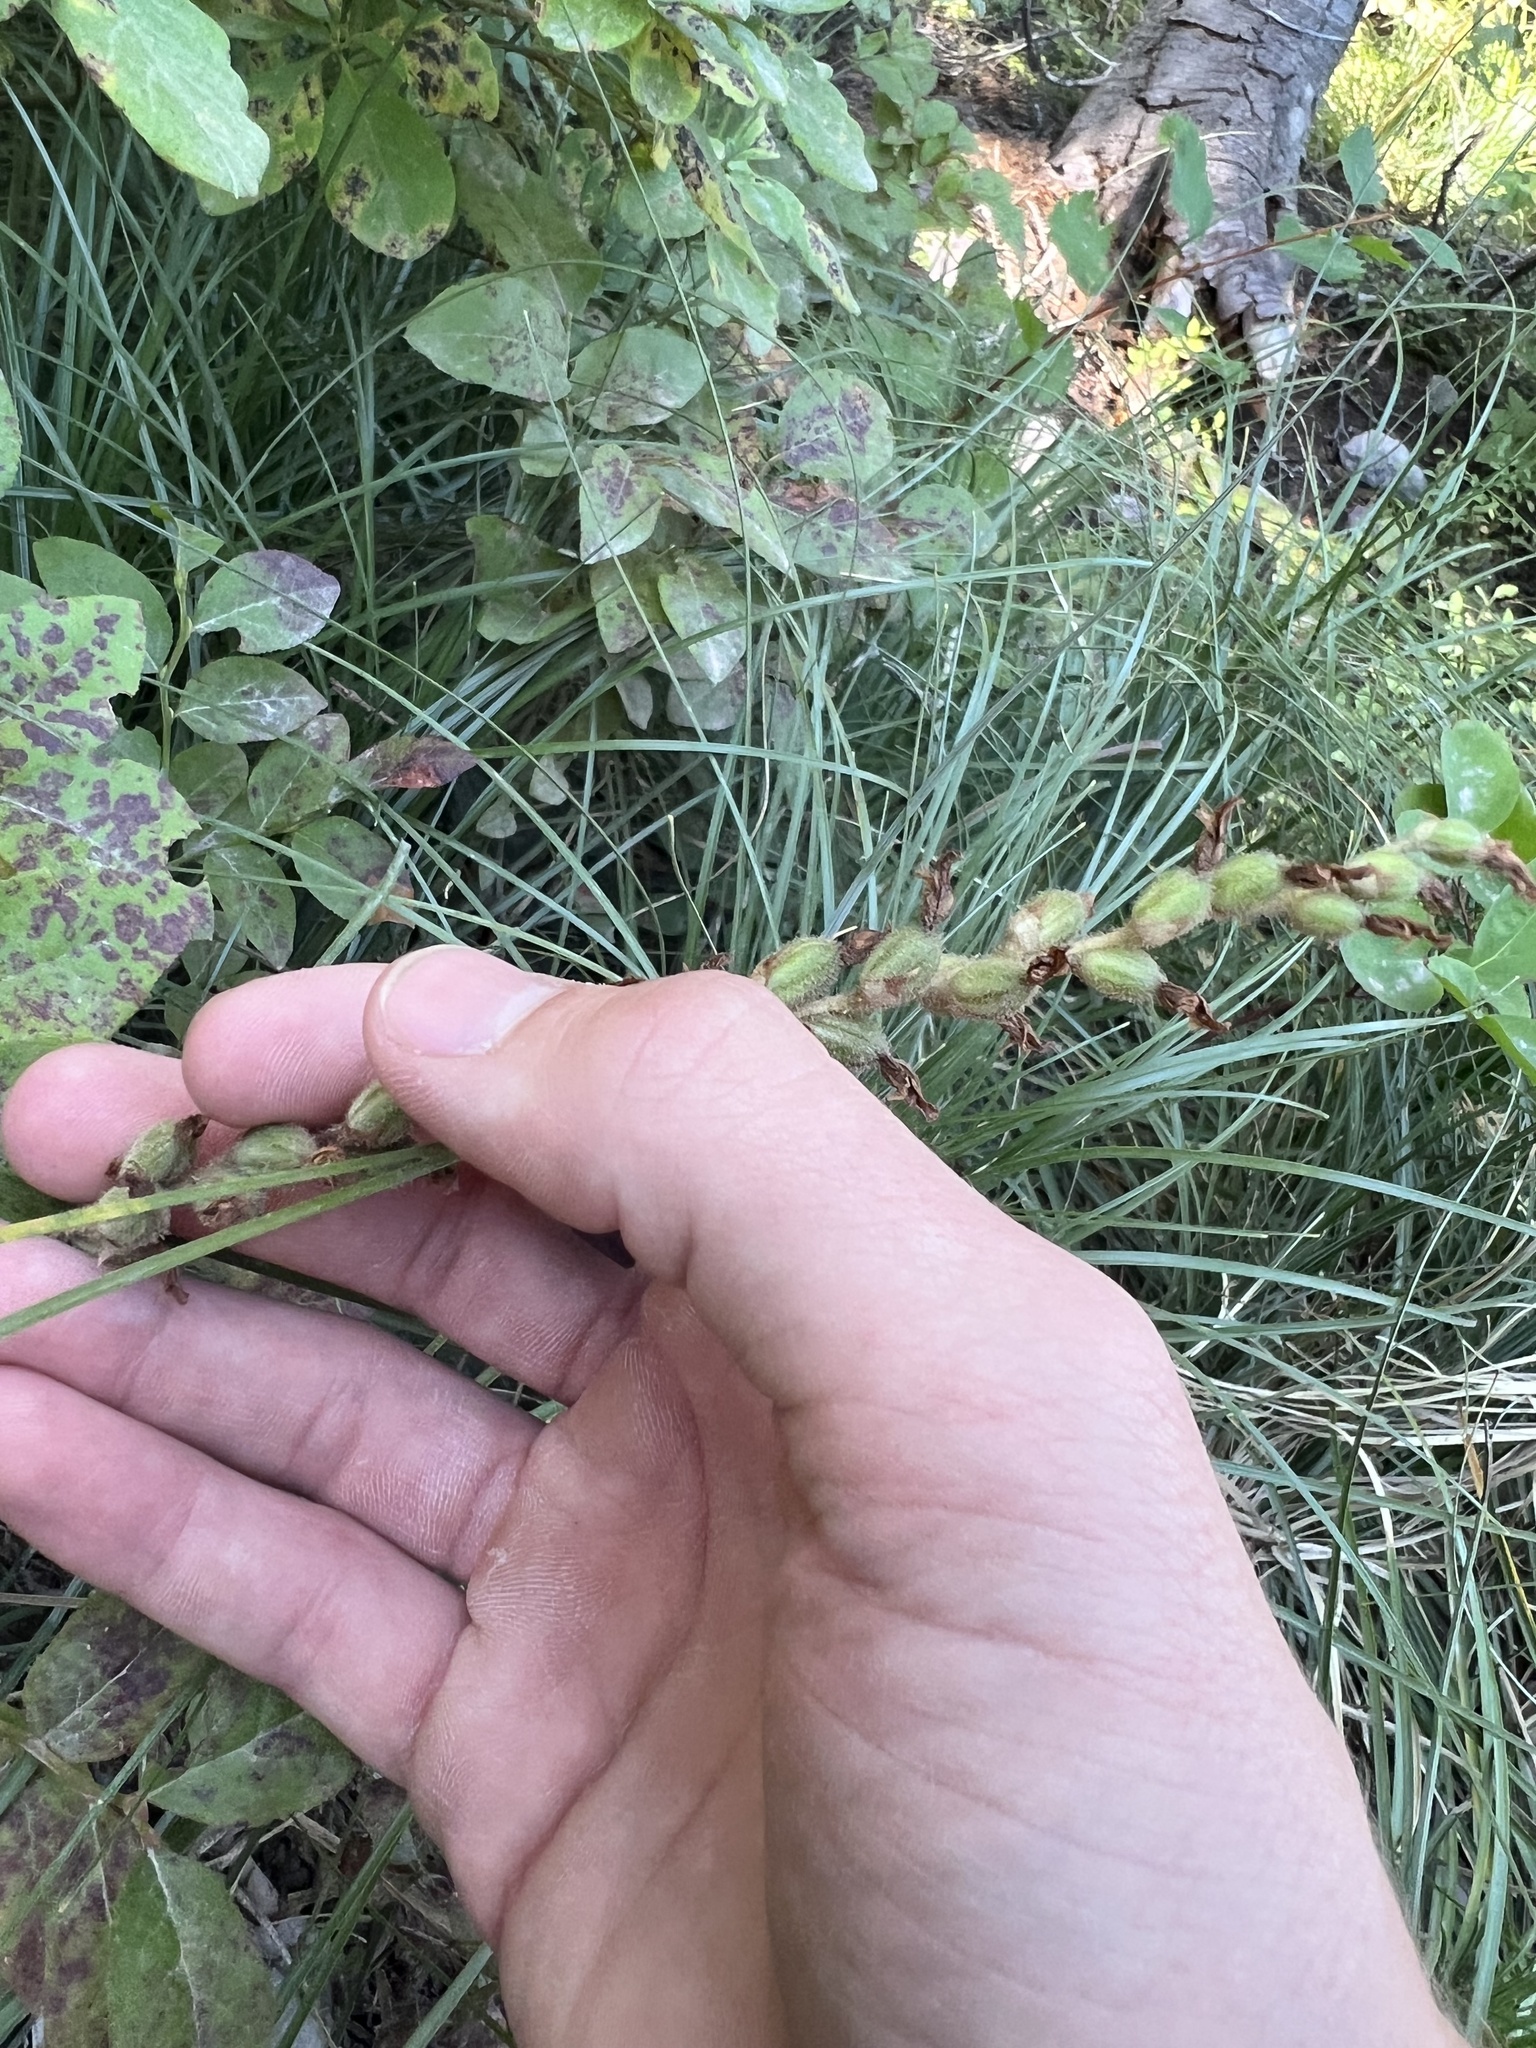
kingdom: Plantae
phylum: Tracheophyta
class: Liliopsida
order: Asparagales
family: Orchidaceae
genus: Goodyera
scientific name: Goodyera oblongifolia
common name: Giant rattlesnake-plantain
